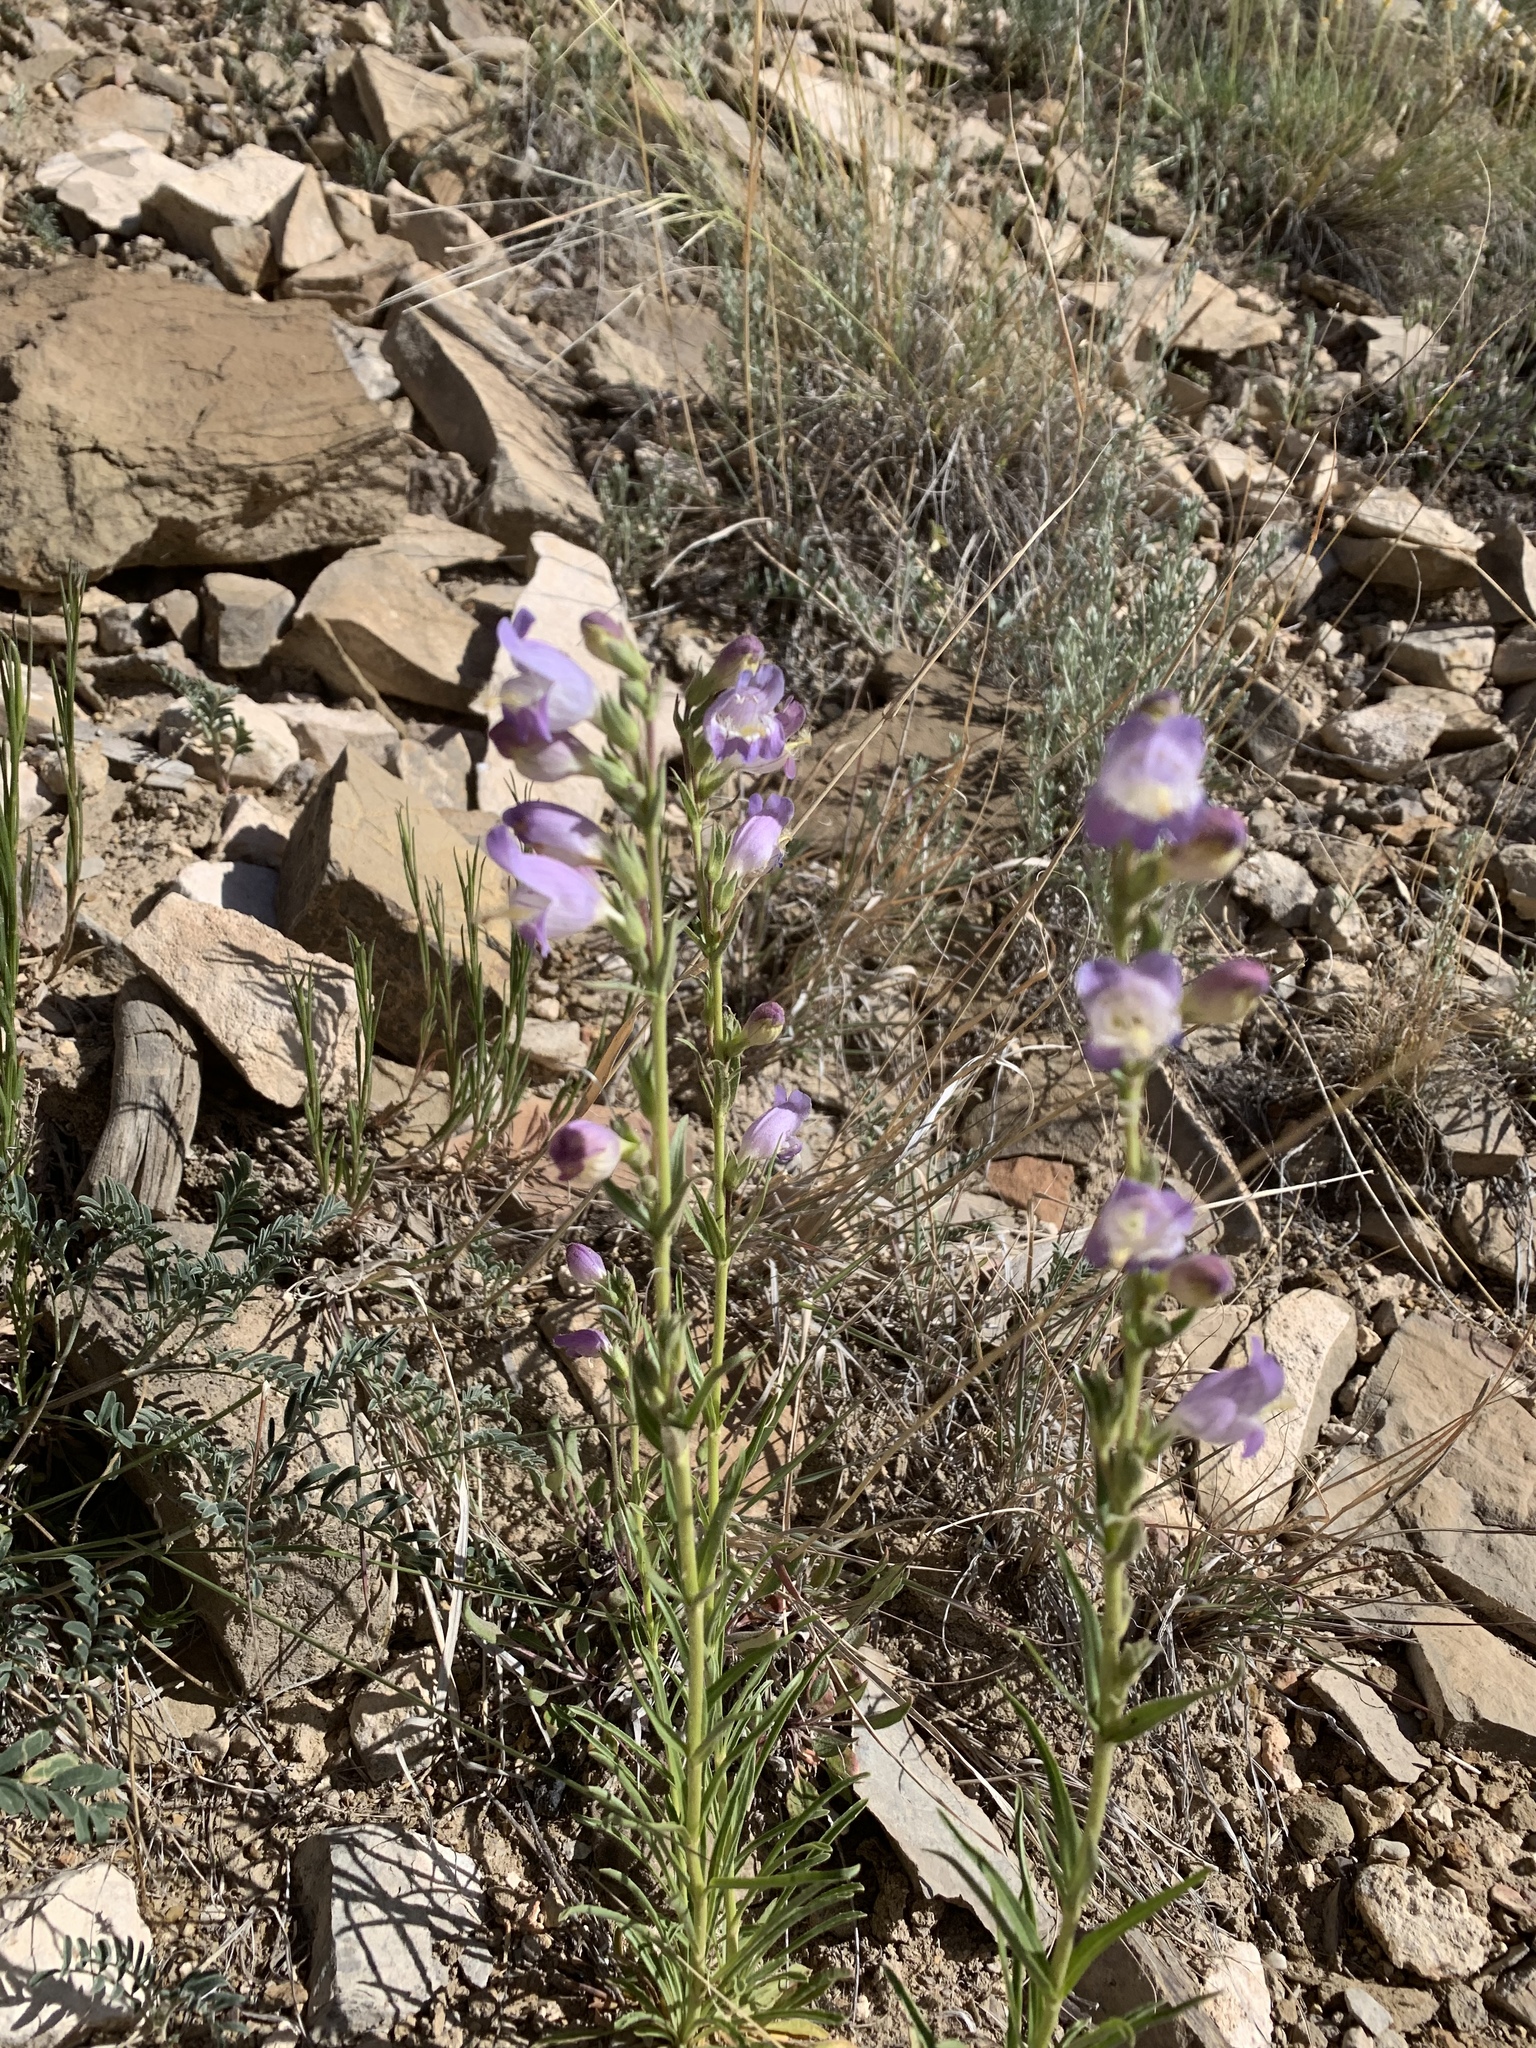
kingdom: Plantae
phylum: Tracheophyta
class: Magnoliopsida
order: Lamiales
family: Plantaginaceae
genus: Penstemon
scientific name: Penstemon jamesii
